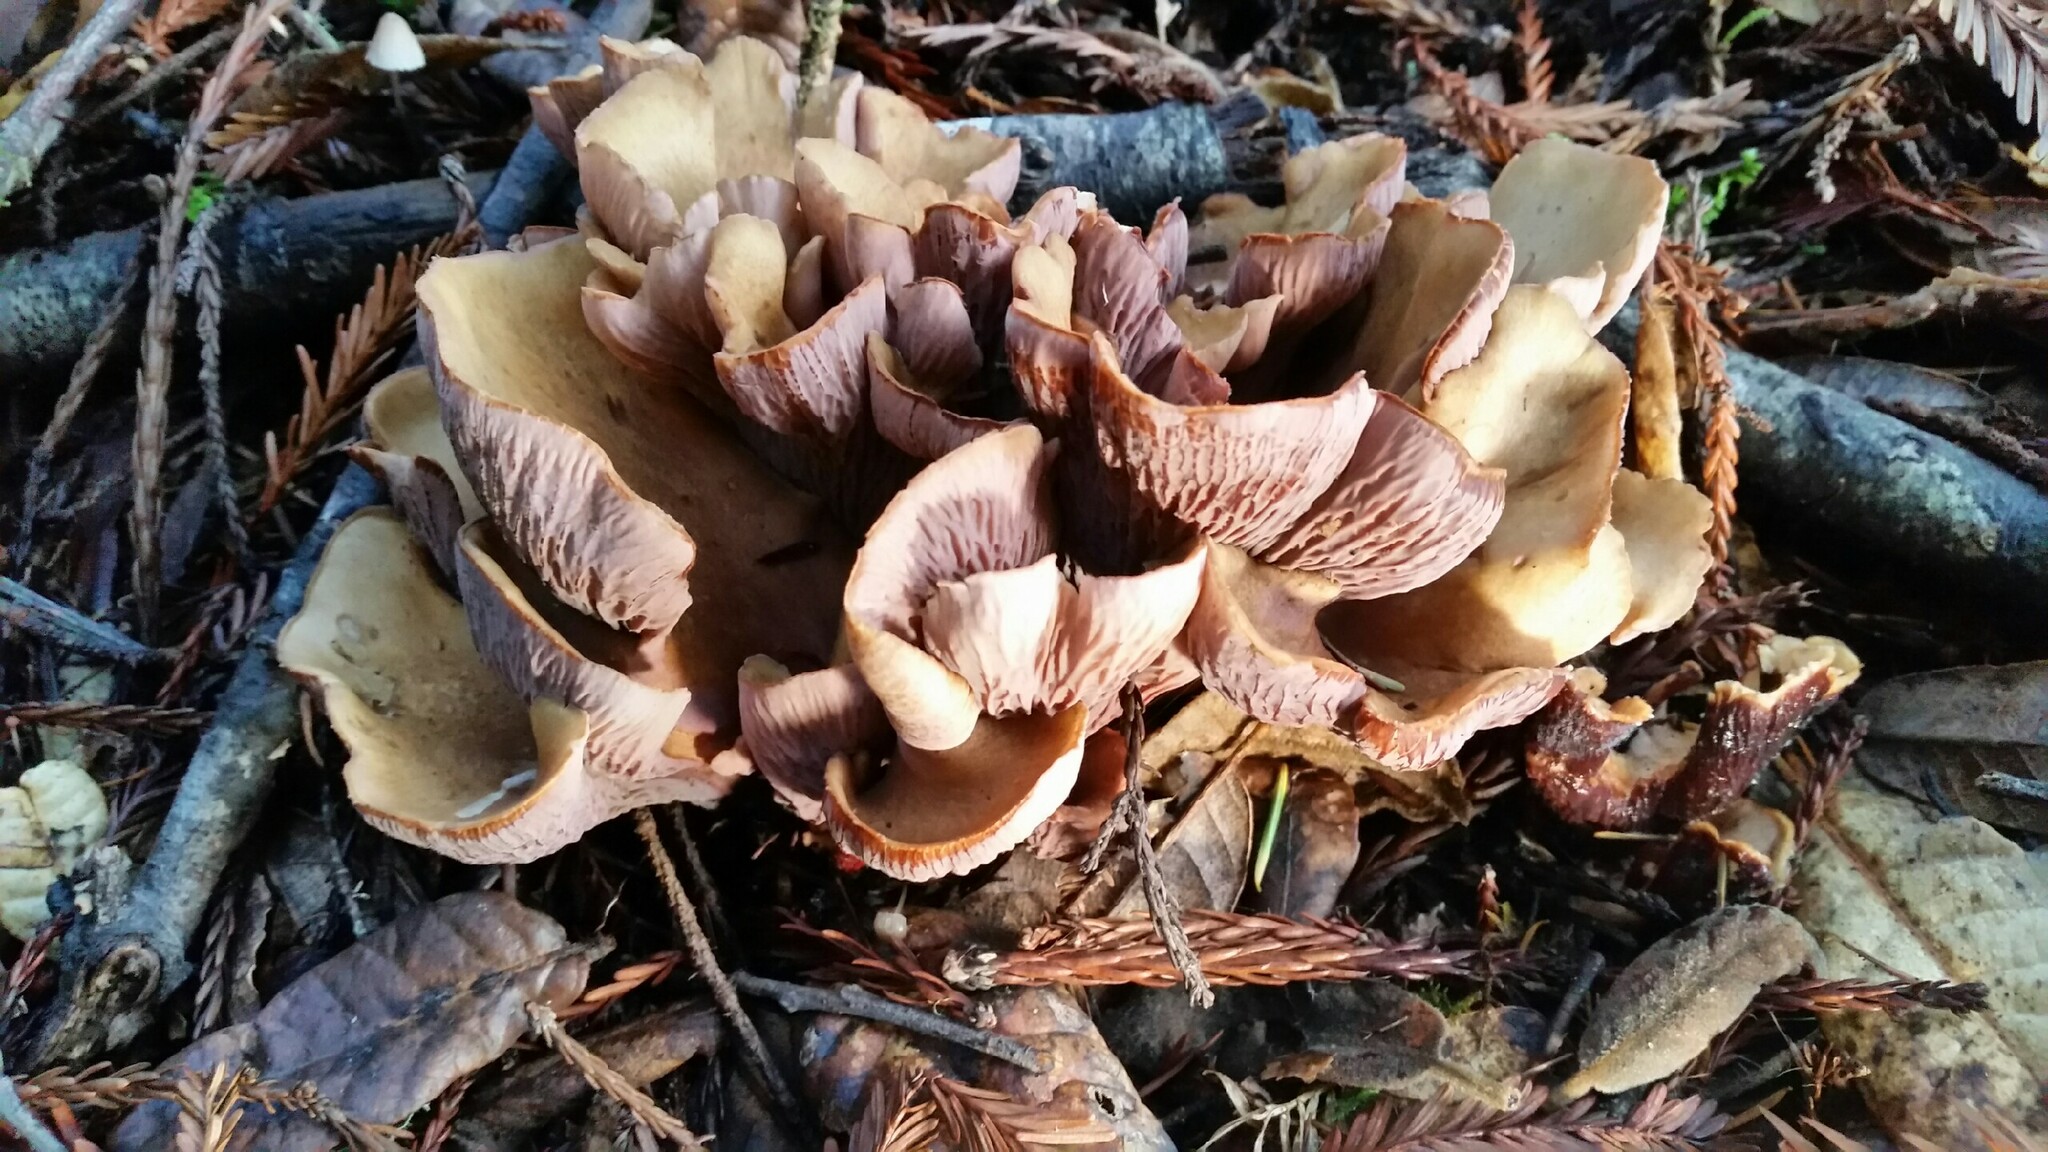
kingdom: Fungi
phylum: Basidiomycota
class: Agaricomycetes
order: Gomphales
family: Gomphaceae
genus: Gomphus
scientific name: Gomphus clavatus
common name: Pig's ear
